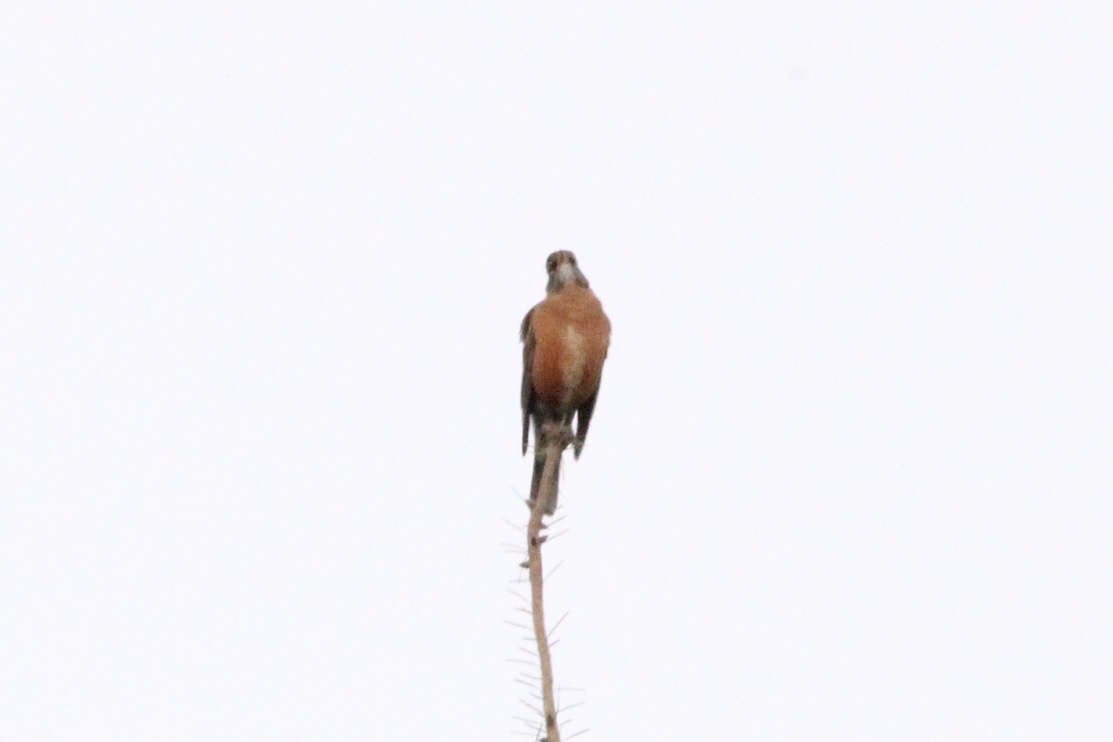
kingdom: Animalia
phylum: Chordata
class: Aves
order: Passeriformes
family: Turdidae
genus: Turdus
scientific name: Turdus migratorius
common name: American robin
